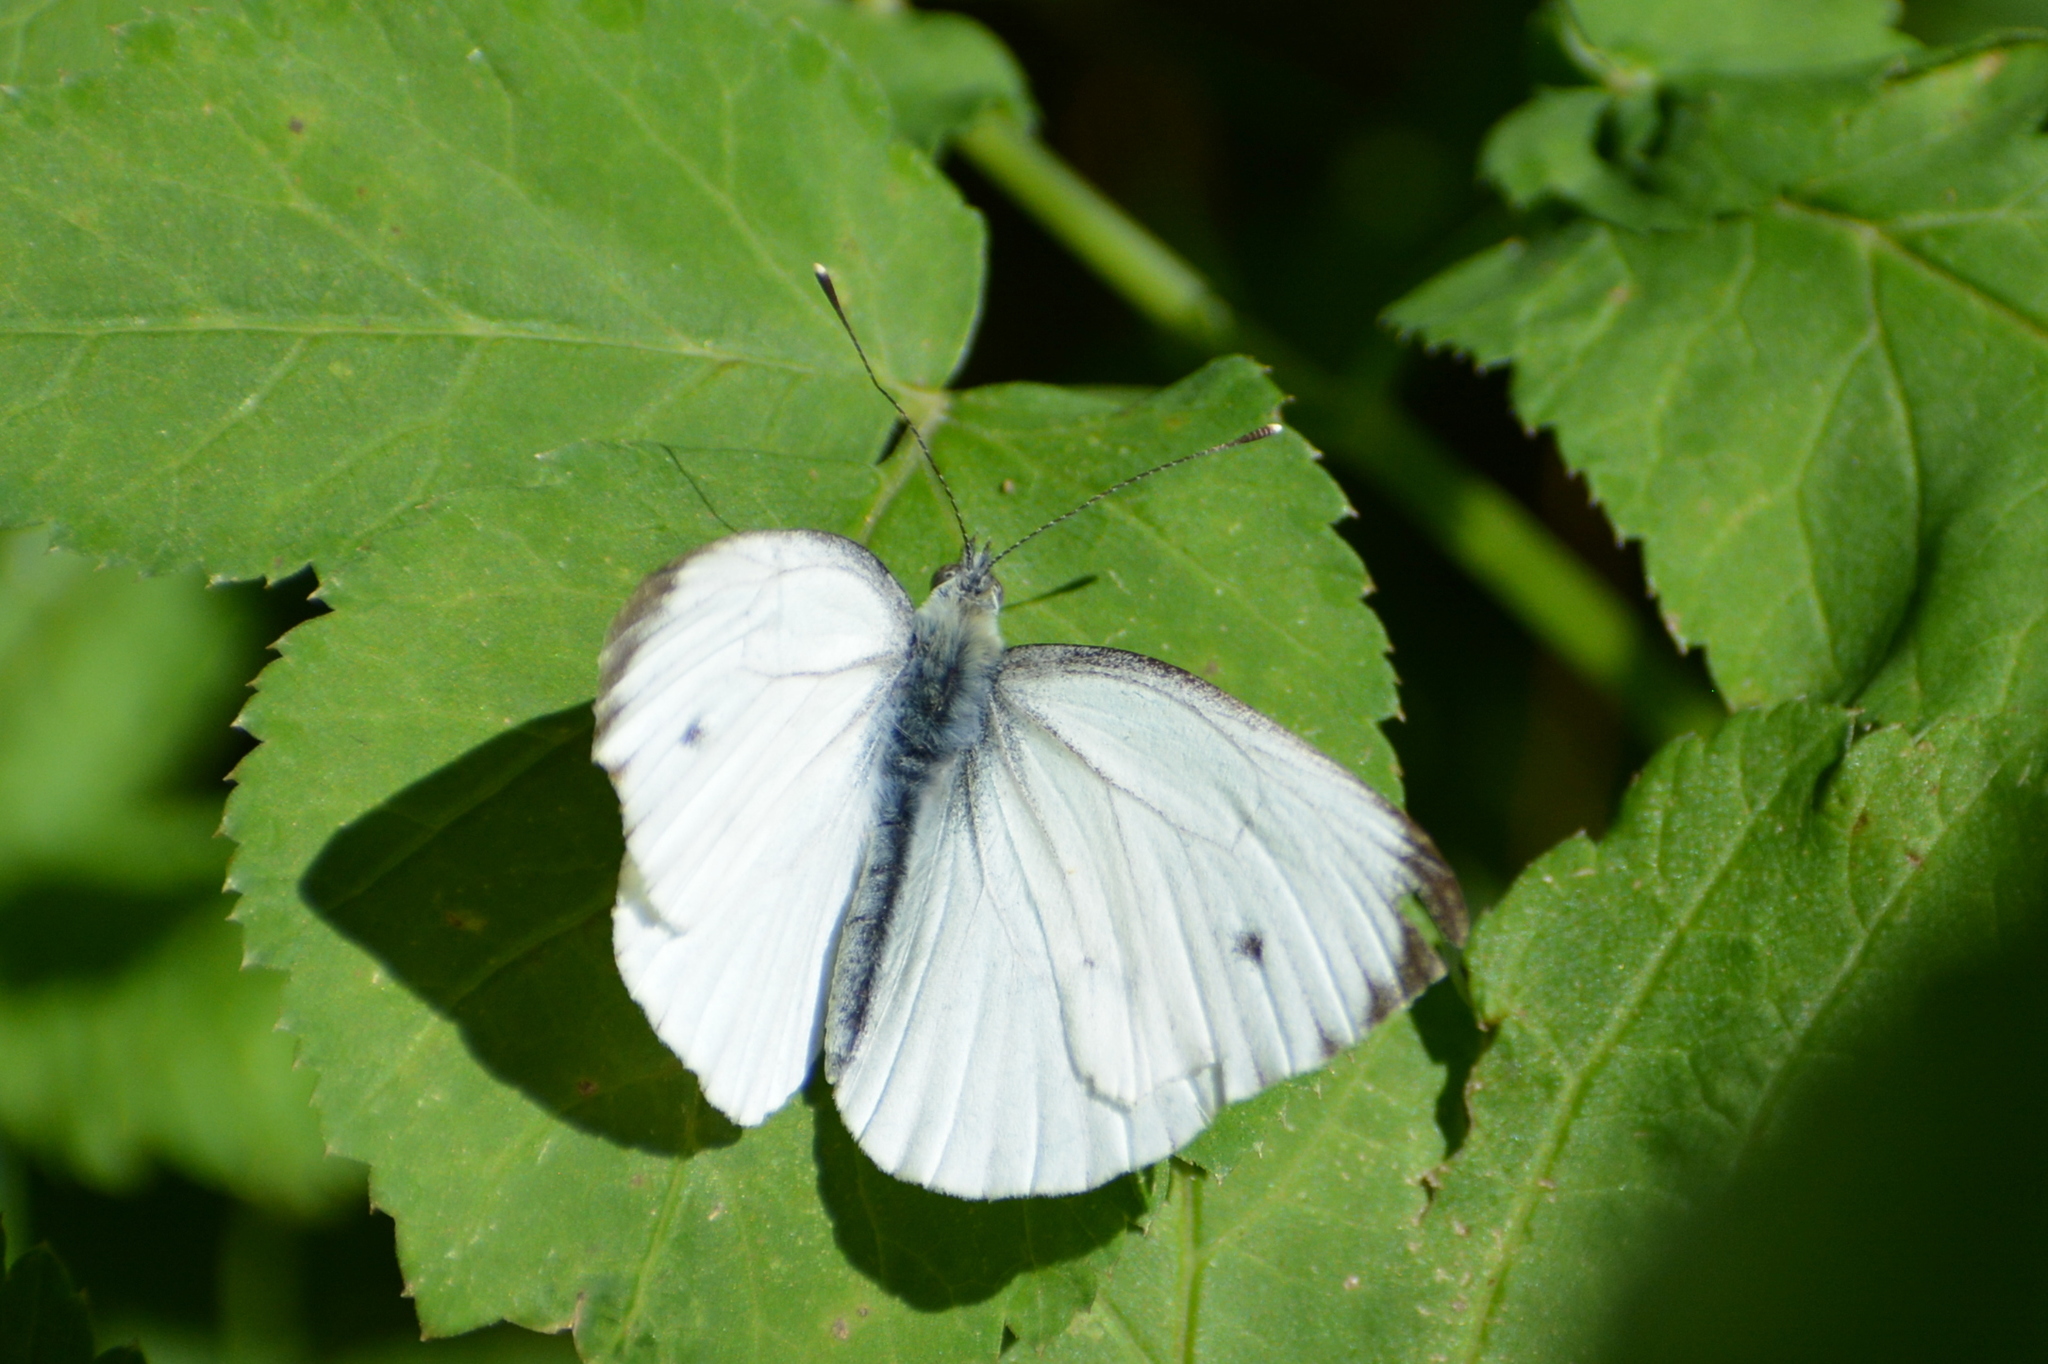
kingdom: Animalia
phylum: Arthropoda
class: Insecta
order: Lepidoptera
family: Pieridae
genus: Pieris
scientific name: Pieris napi
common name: Green-veined white
